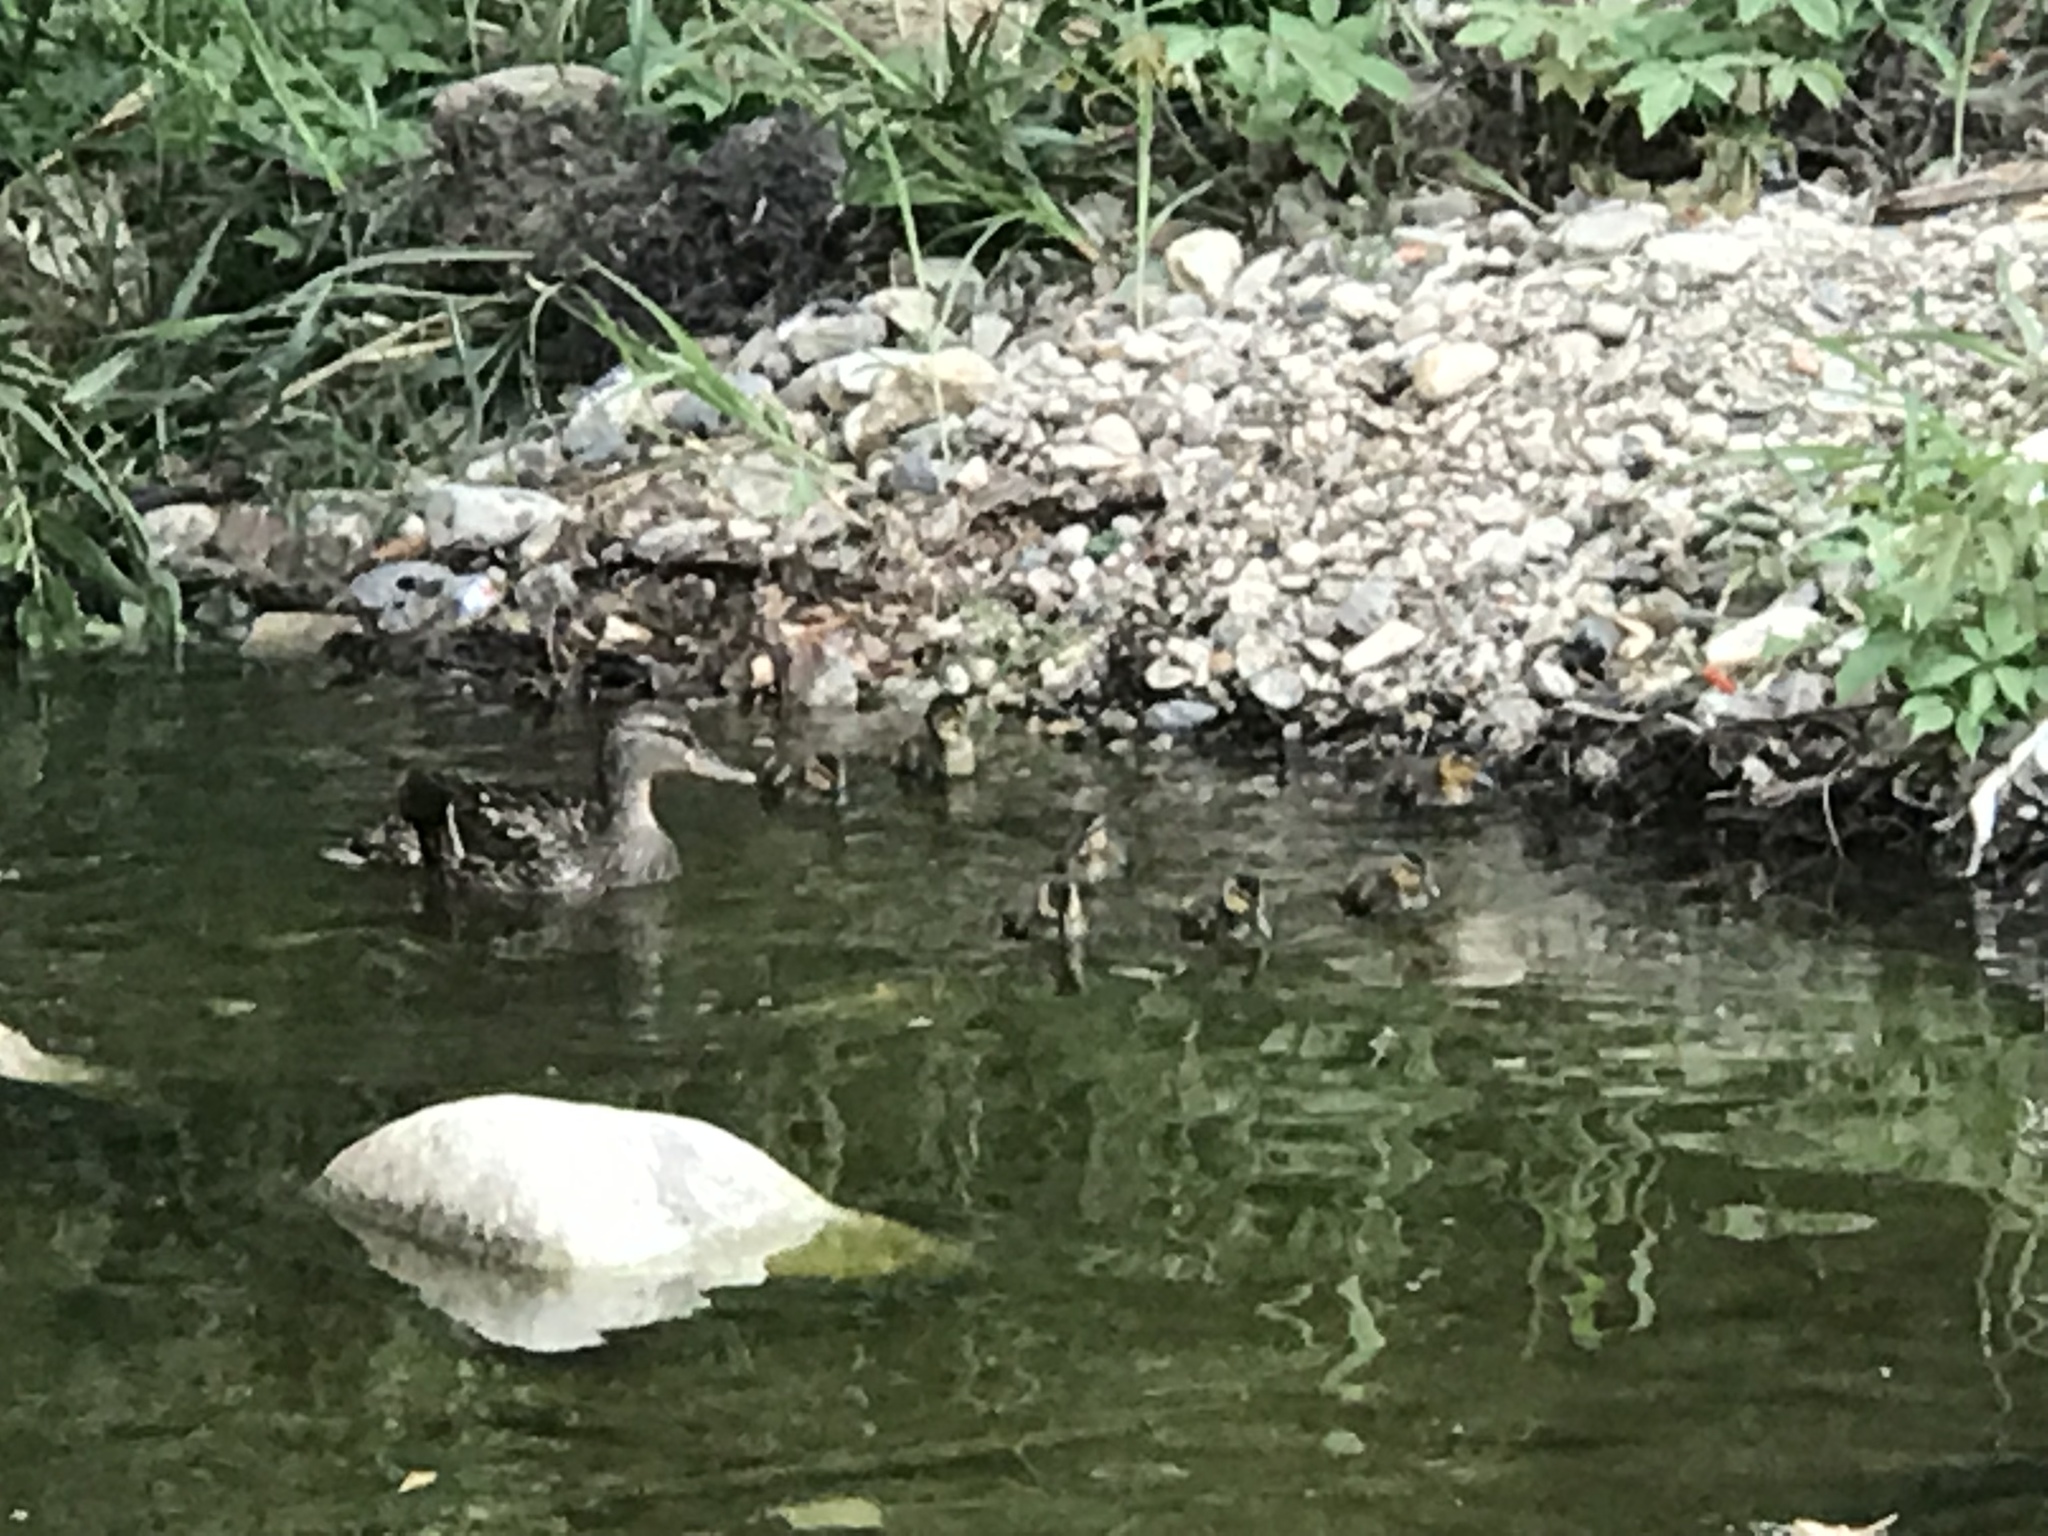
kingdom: Animalia
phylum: Chordata
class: Aves
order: Anseriformes
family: Anatidae
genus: Anas
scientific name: Anas platyrhynchos
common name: Mallard
